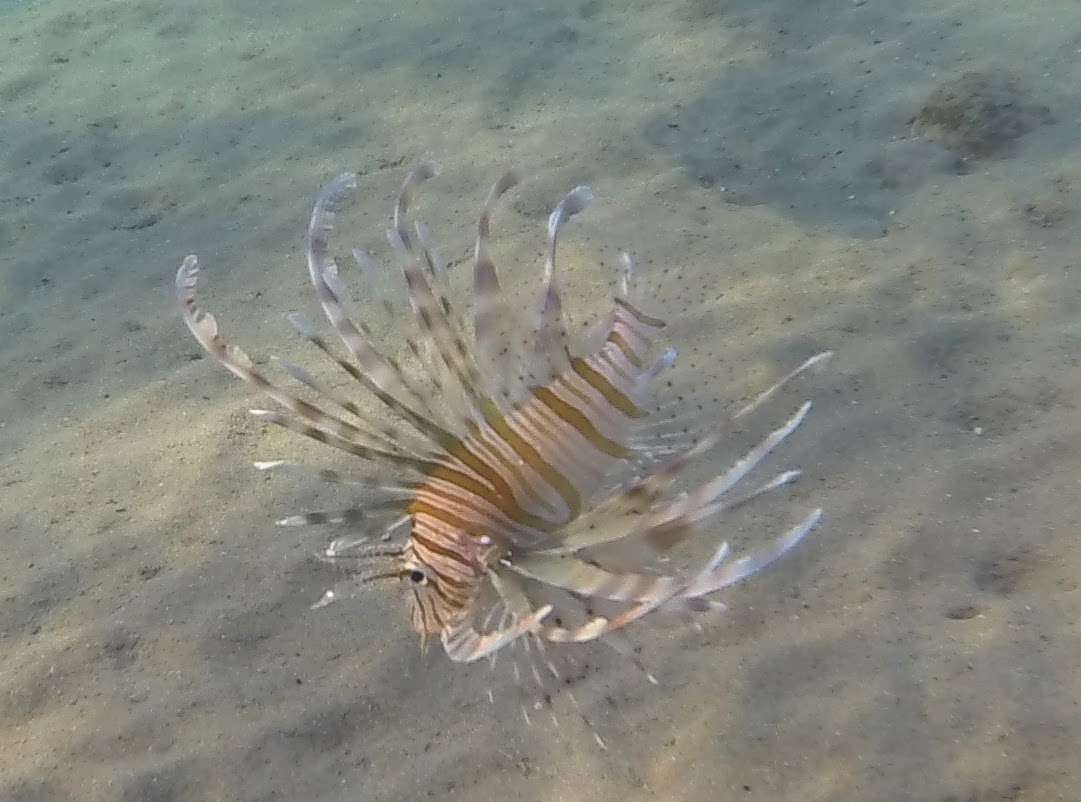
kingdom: Animalia
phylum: Chordata
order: Scorpaeniformes
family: Scorpaenidae
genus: Pterois
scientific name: Pterois miles
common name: Devil firefish
